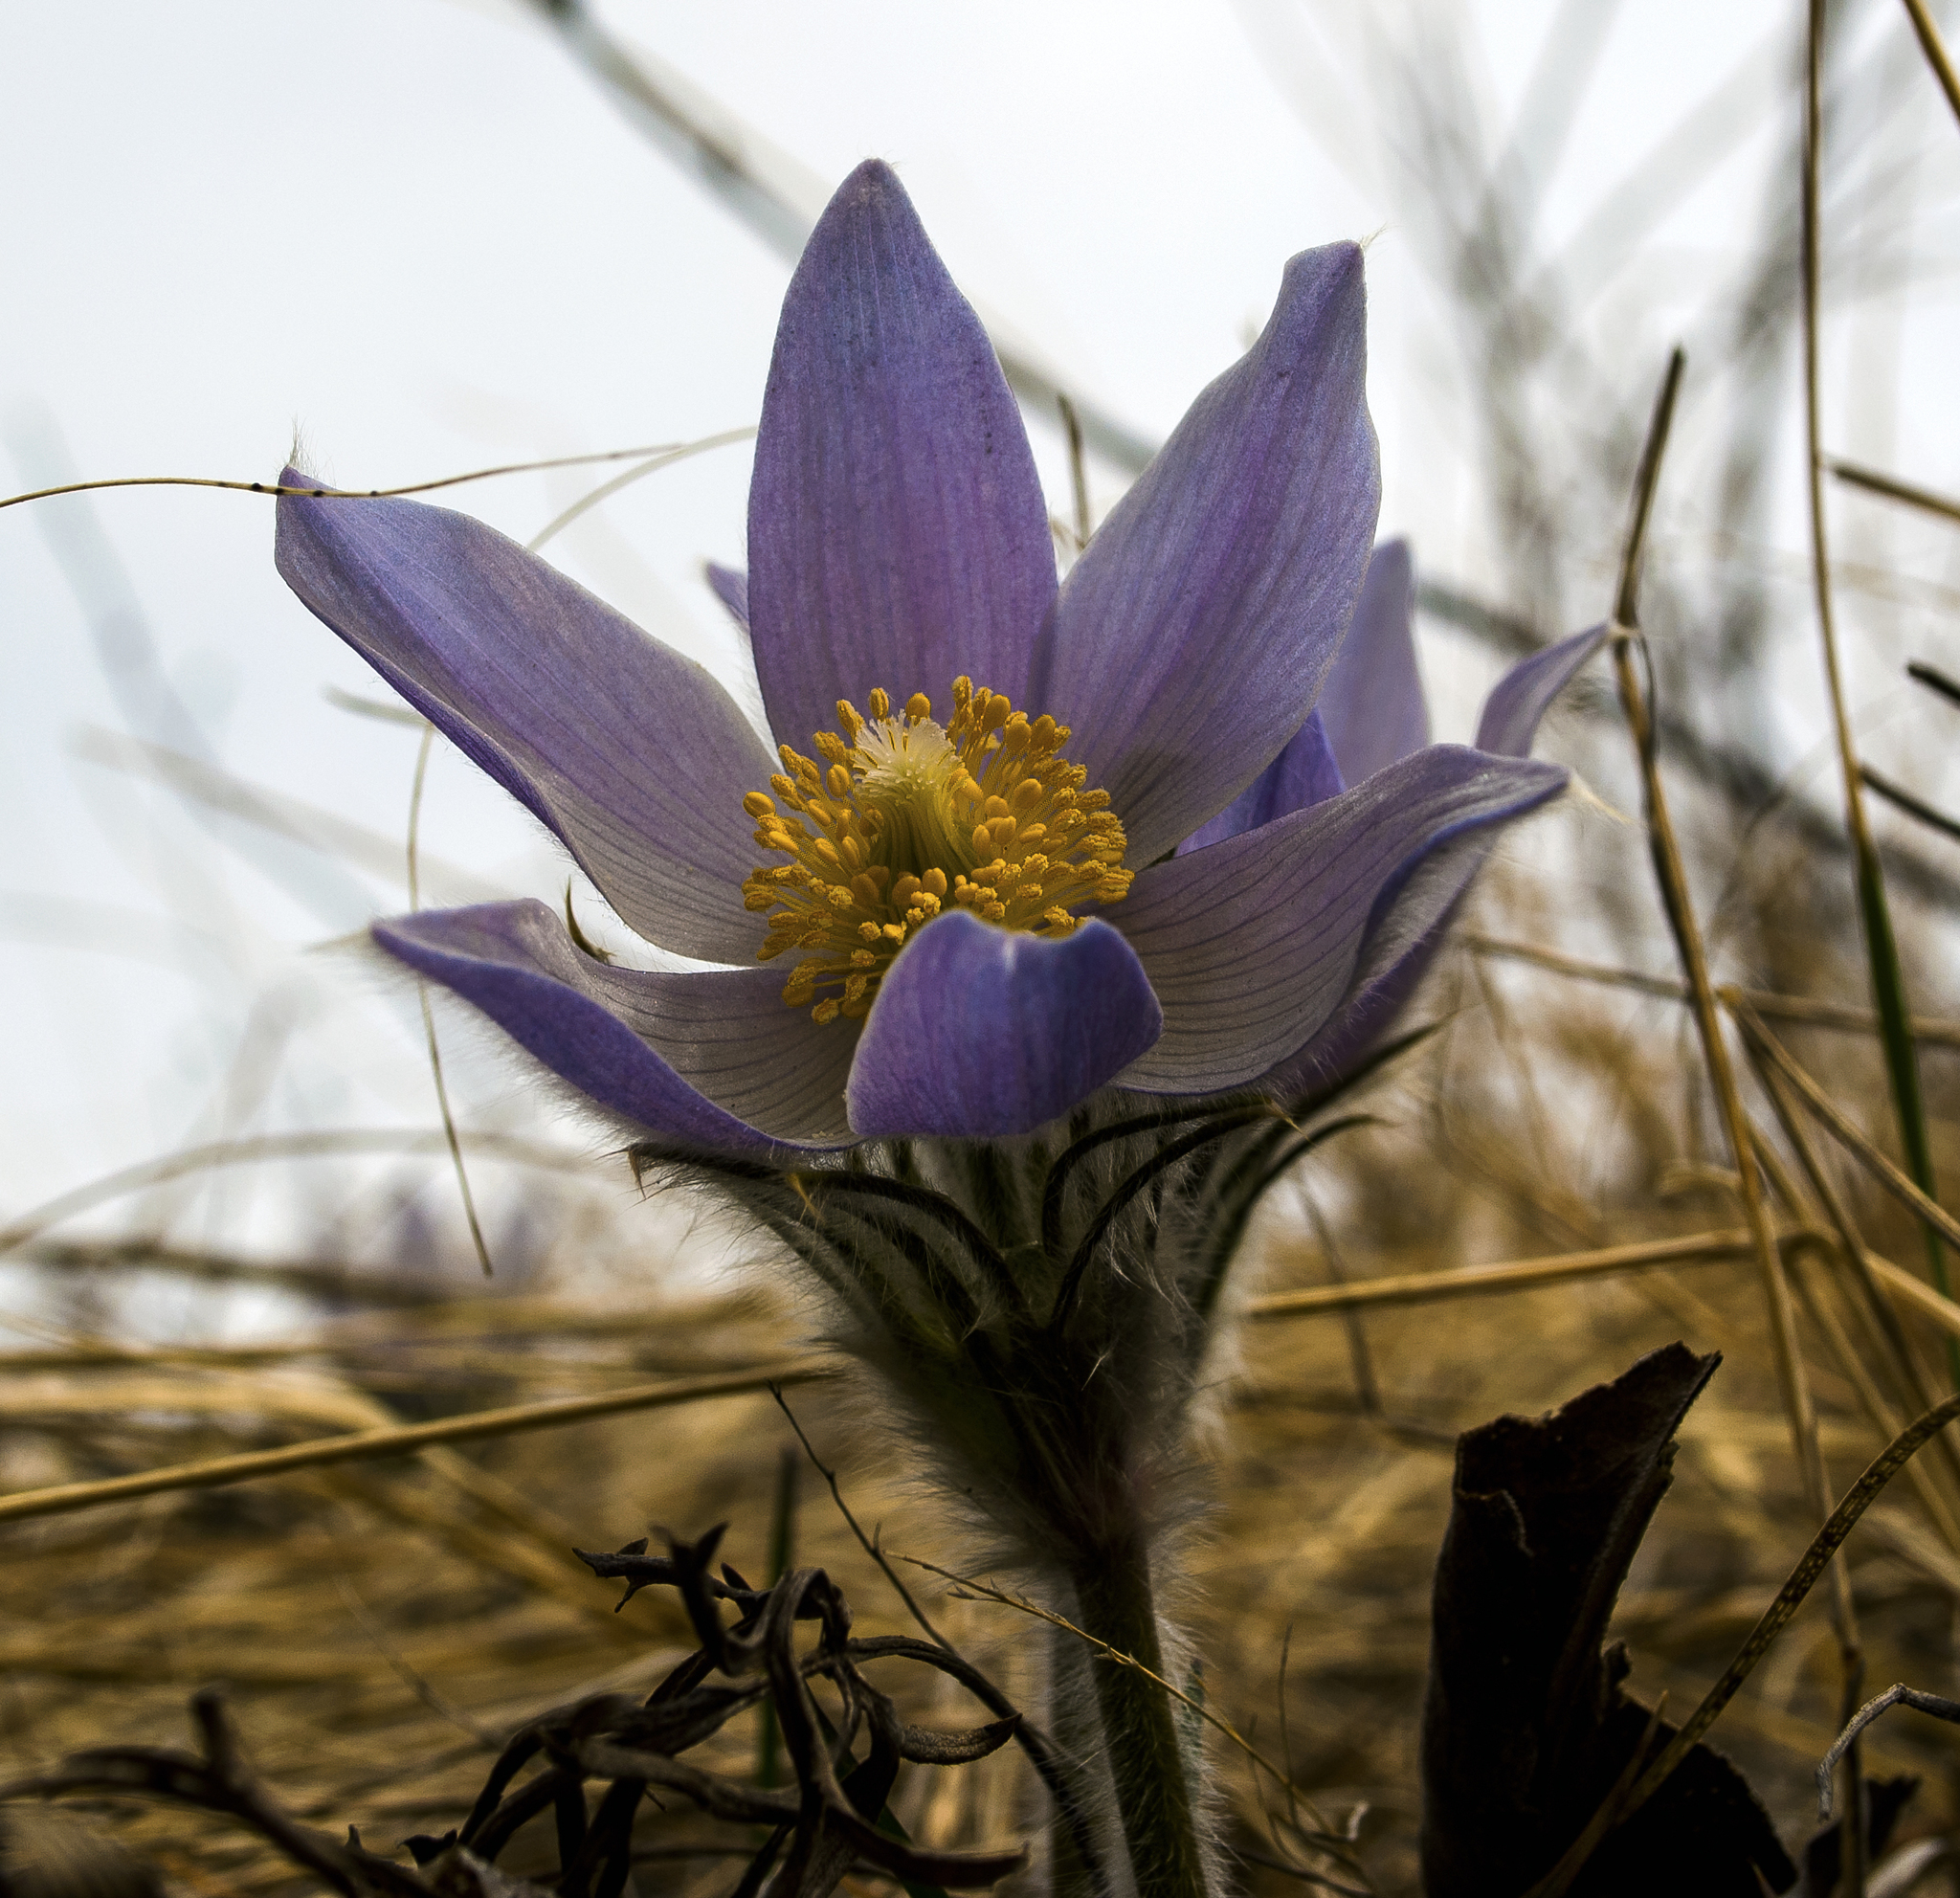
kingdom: Plantae
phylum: Tracheophyta
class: Magnoliopsida
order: Ranunculales
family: Ranunculaceae
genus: Pulsatilla
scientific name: Pulsatilla nuttalliana
